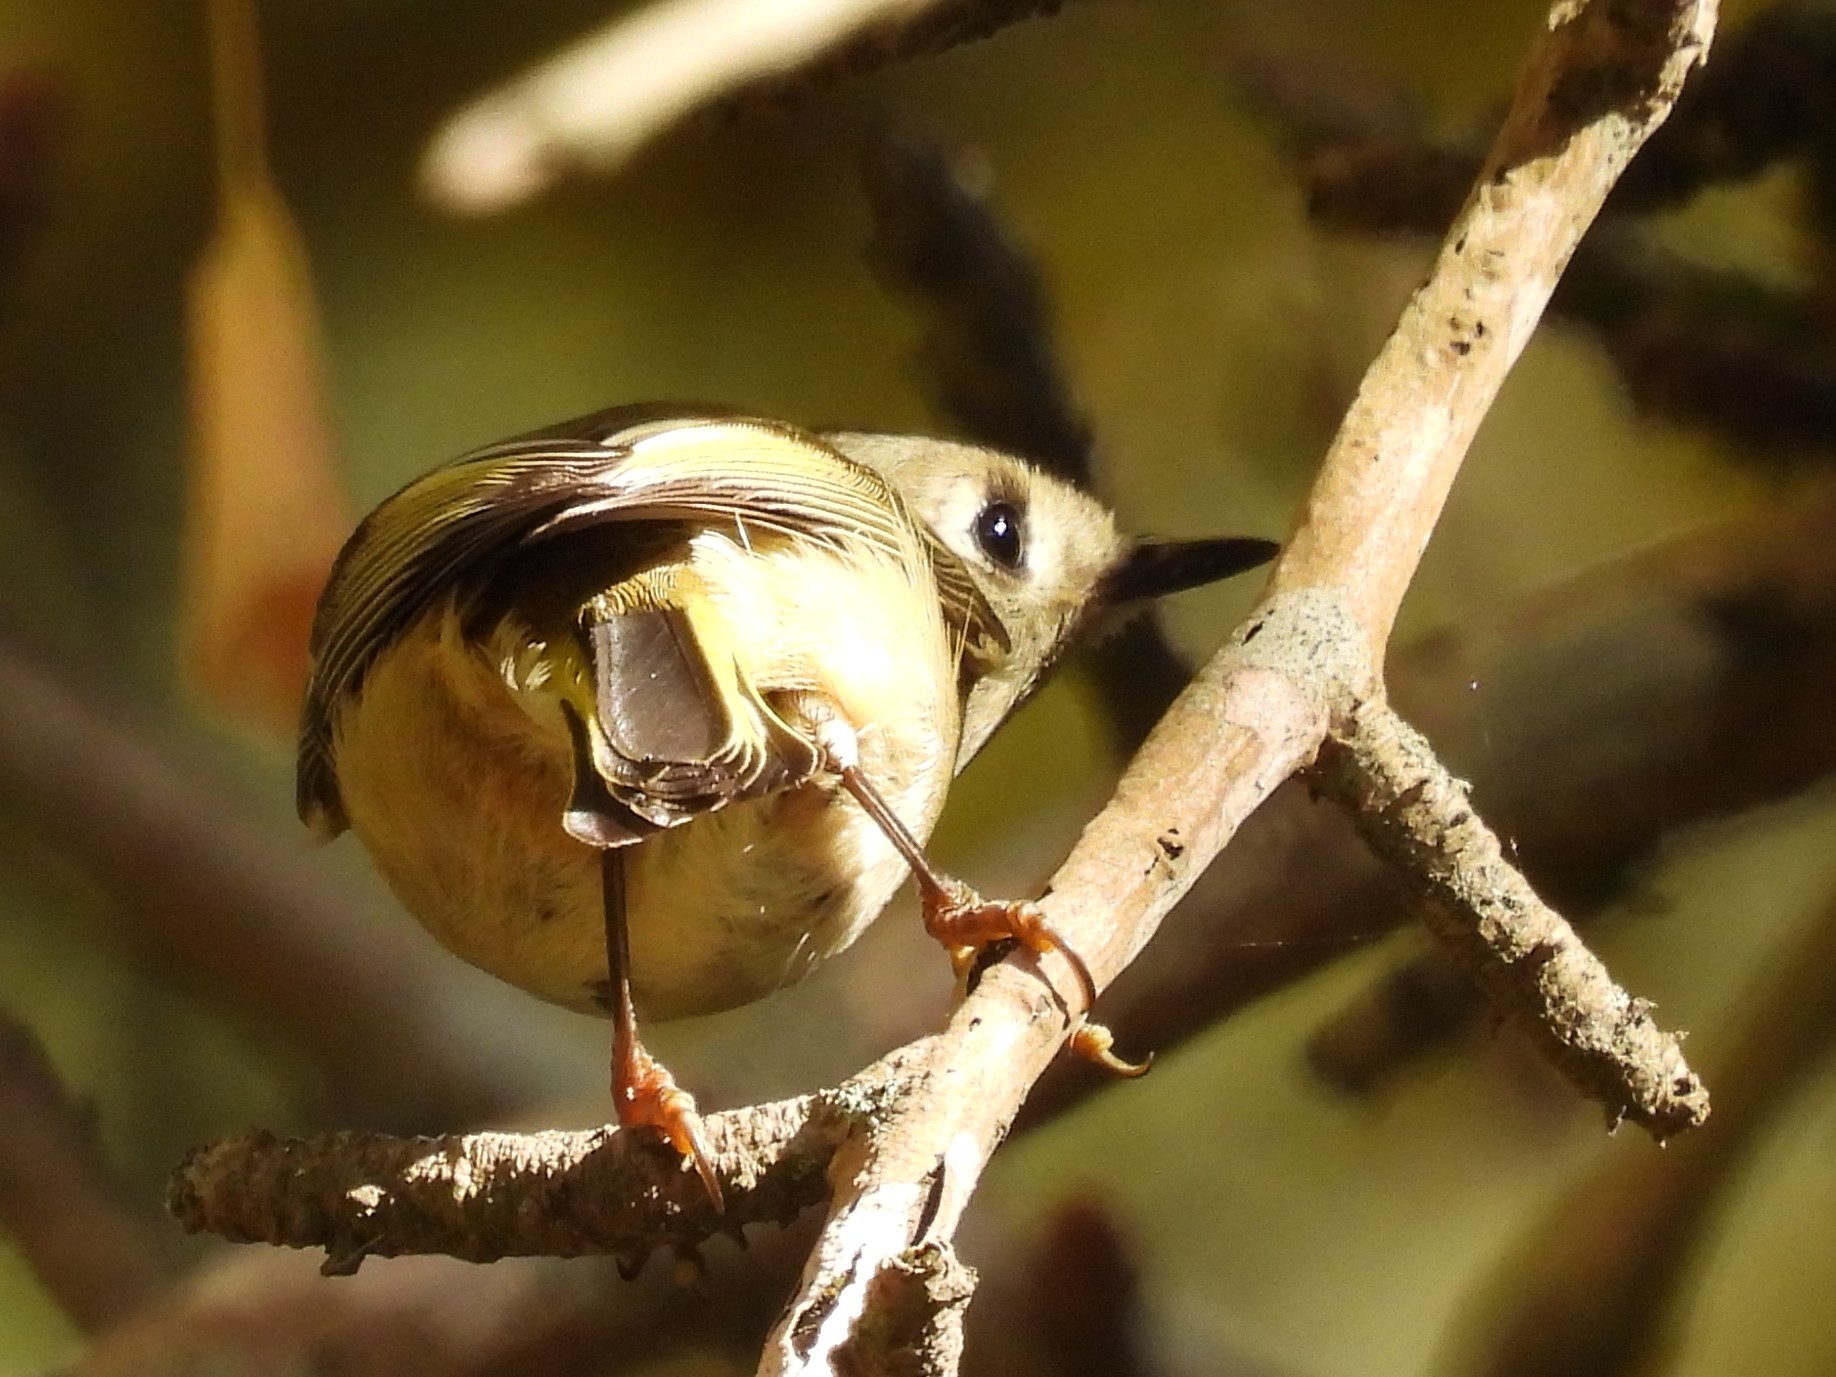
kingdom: Animalia
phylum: Chordata
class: Aves
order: Passeriformes
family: Regulidae
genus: Regulus
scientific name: Regulus calendula
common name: Ruby-crowned kinglet
